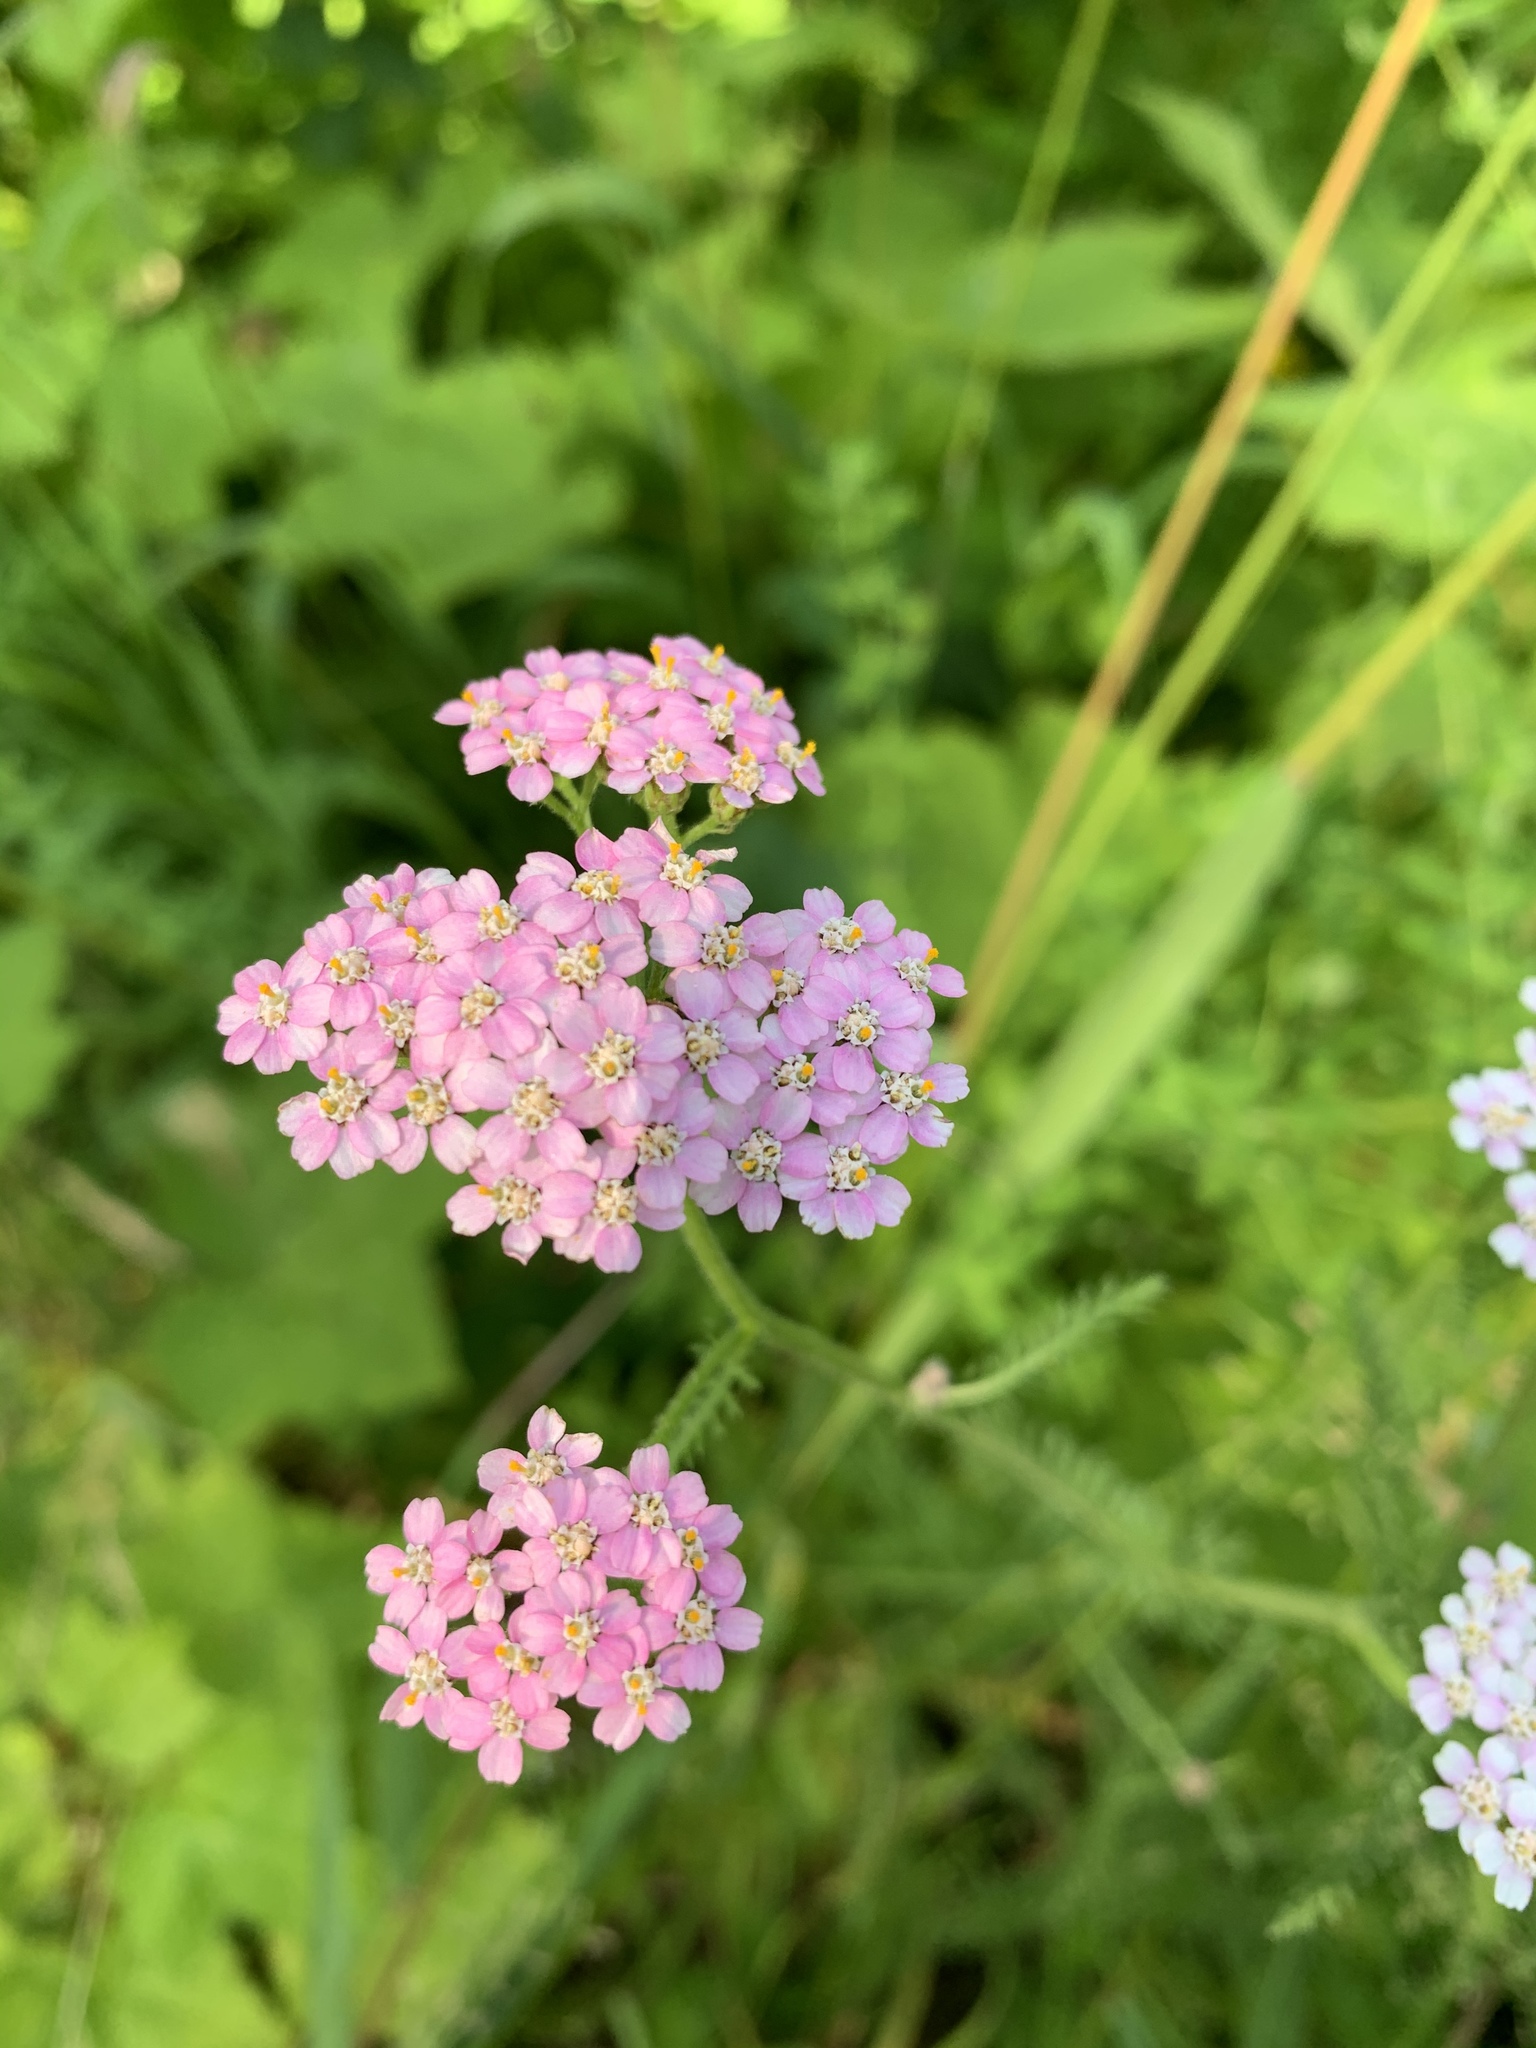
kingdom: Plantae
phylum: Tracheophyta
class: Magnoliopsida
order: Asterales
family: Asteraceae
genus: Achillea
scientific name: Achillea millefolium
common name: Yarrow
